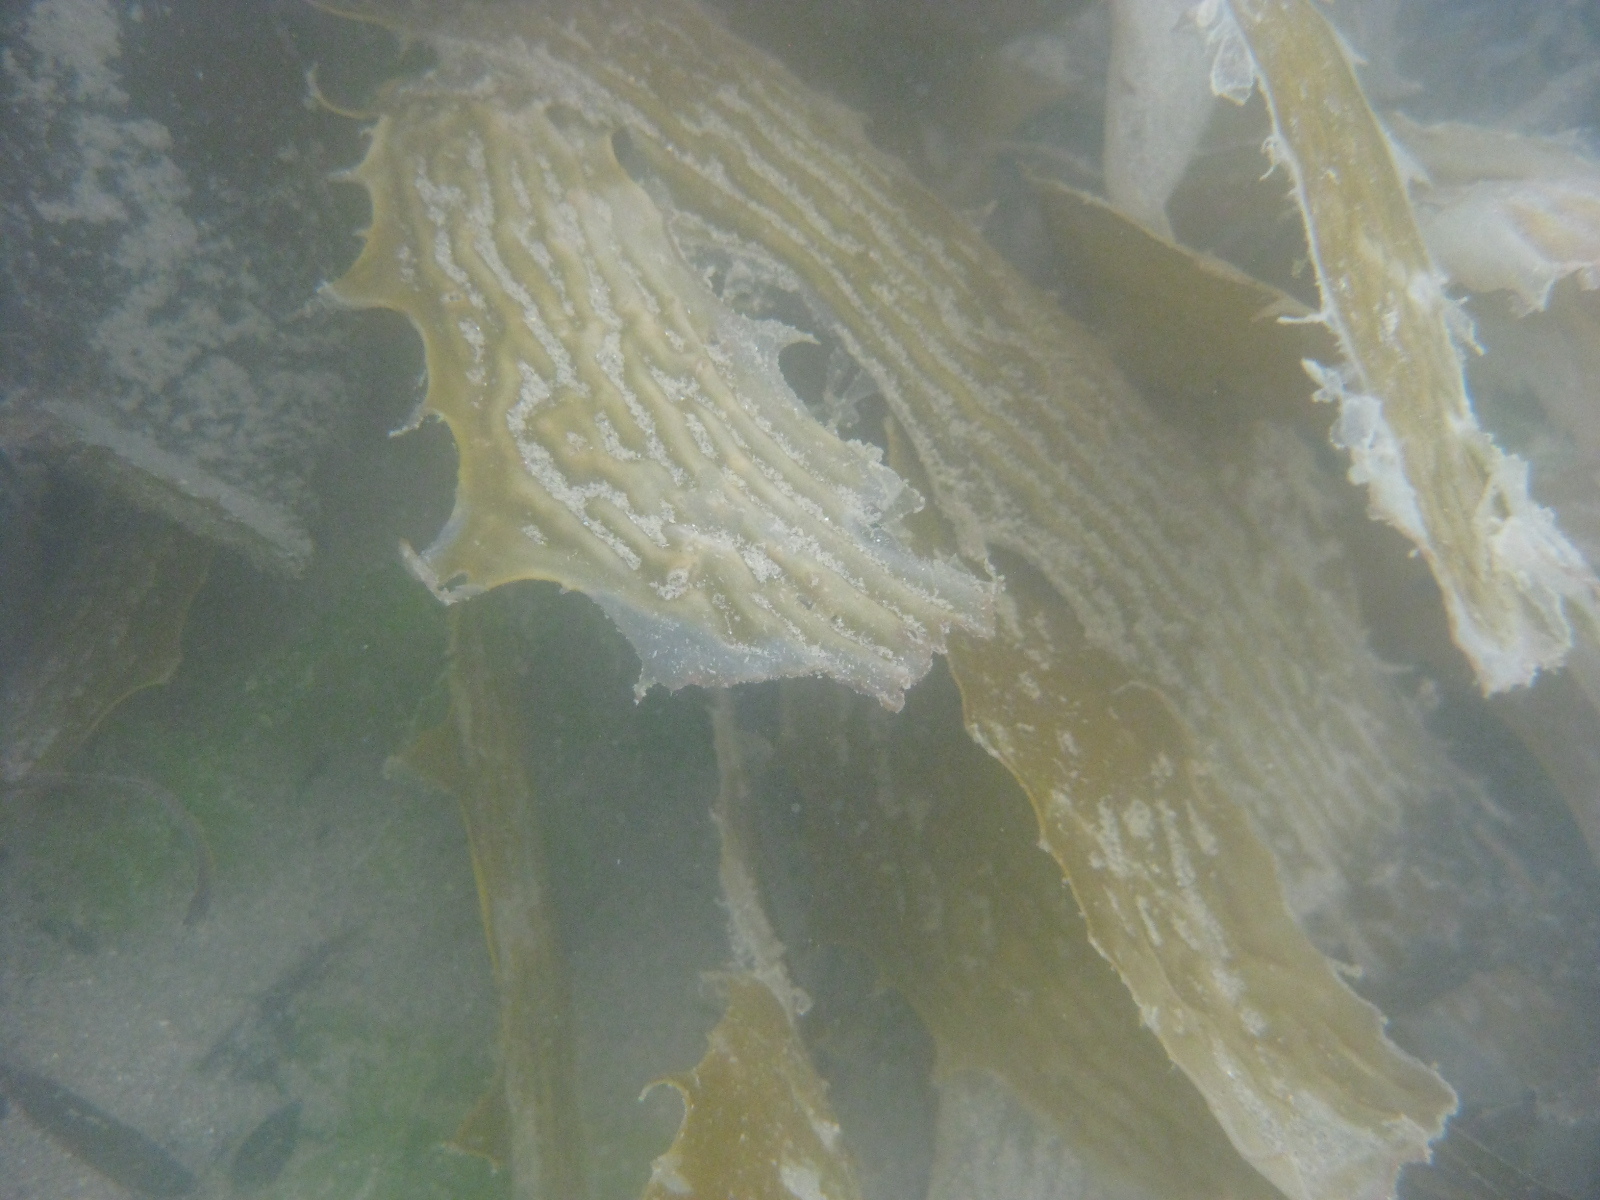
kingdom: Chromista
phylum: Ochrophyta
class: Phaeophyceae
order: Laminariales
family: Lessoniaceae
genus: Ecklonia
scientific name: Ecklonia radiata
